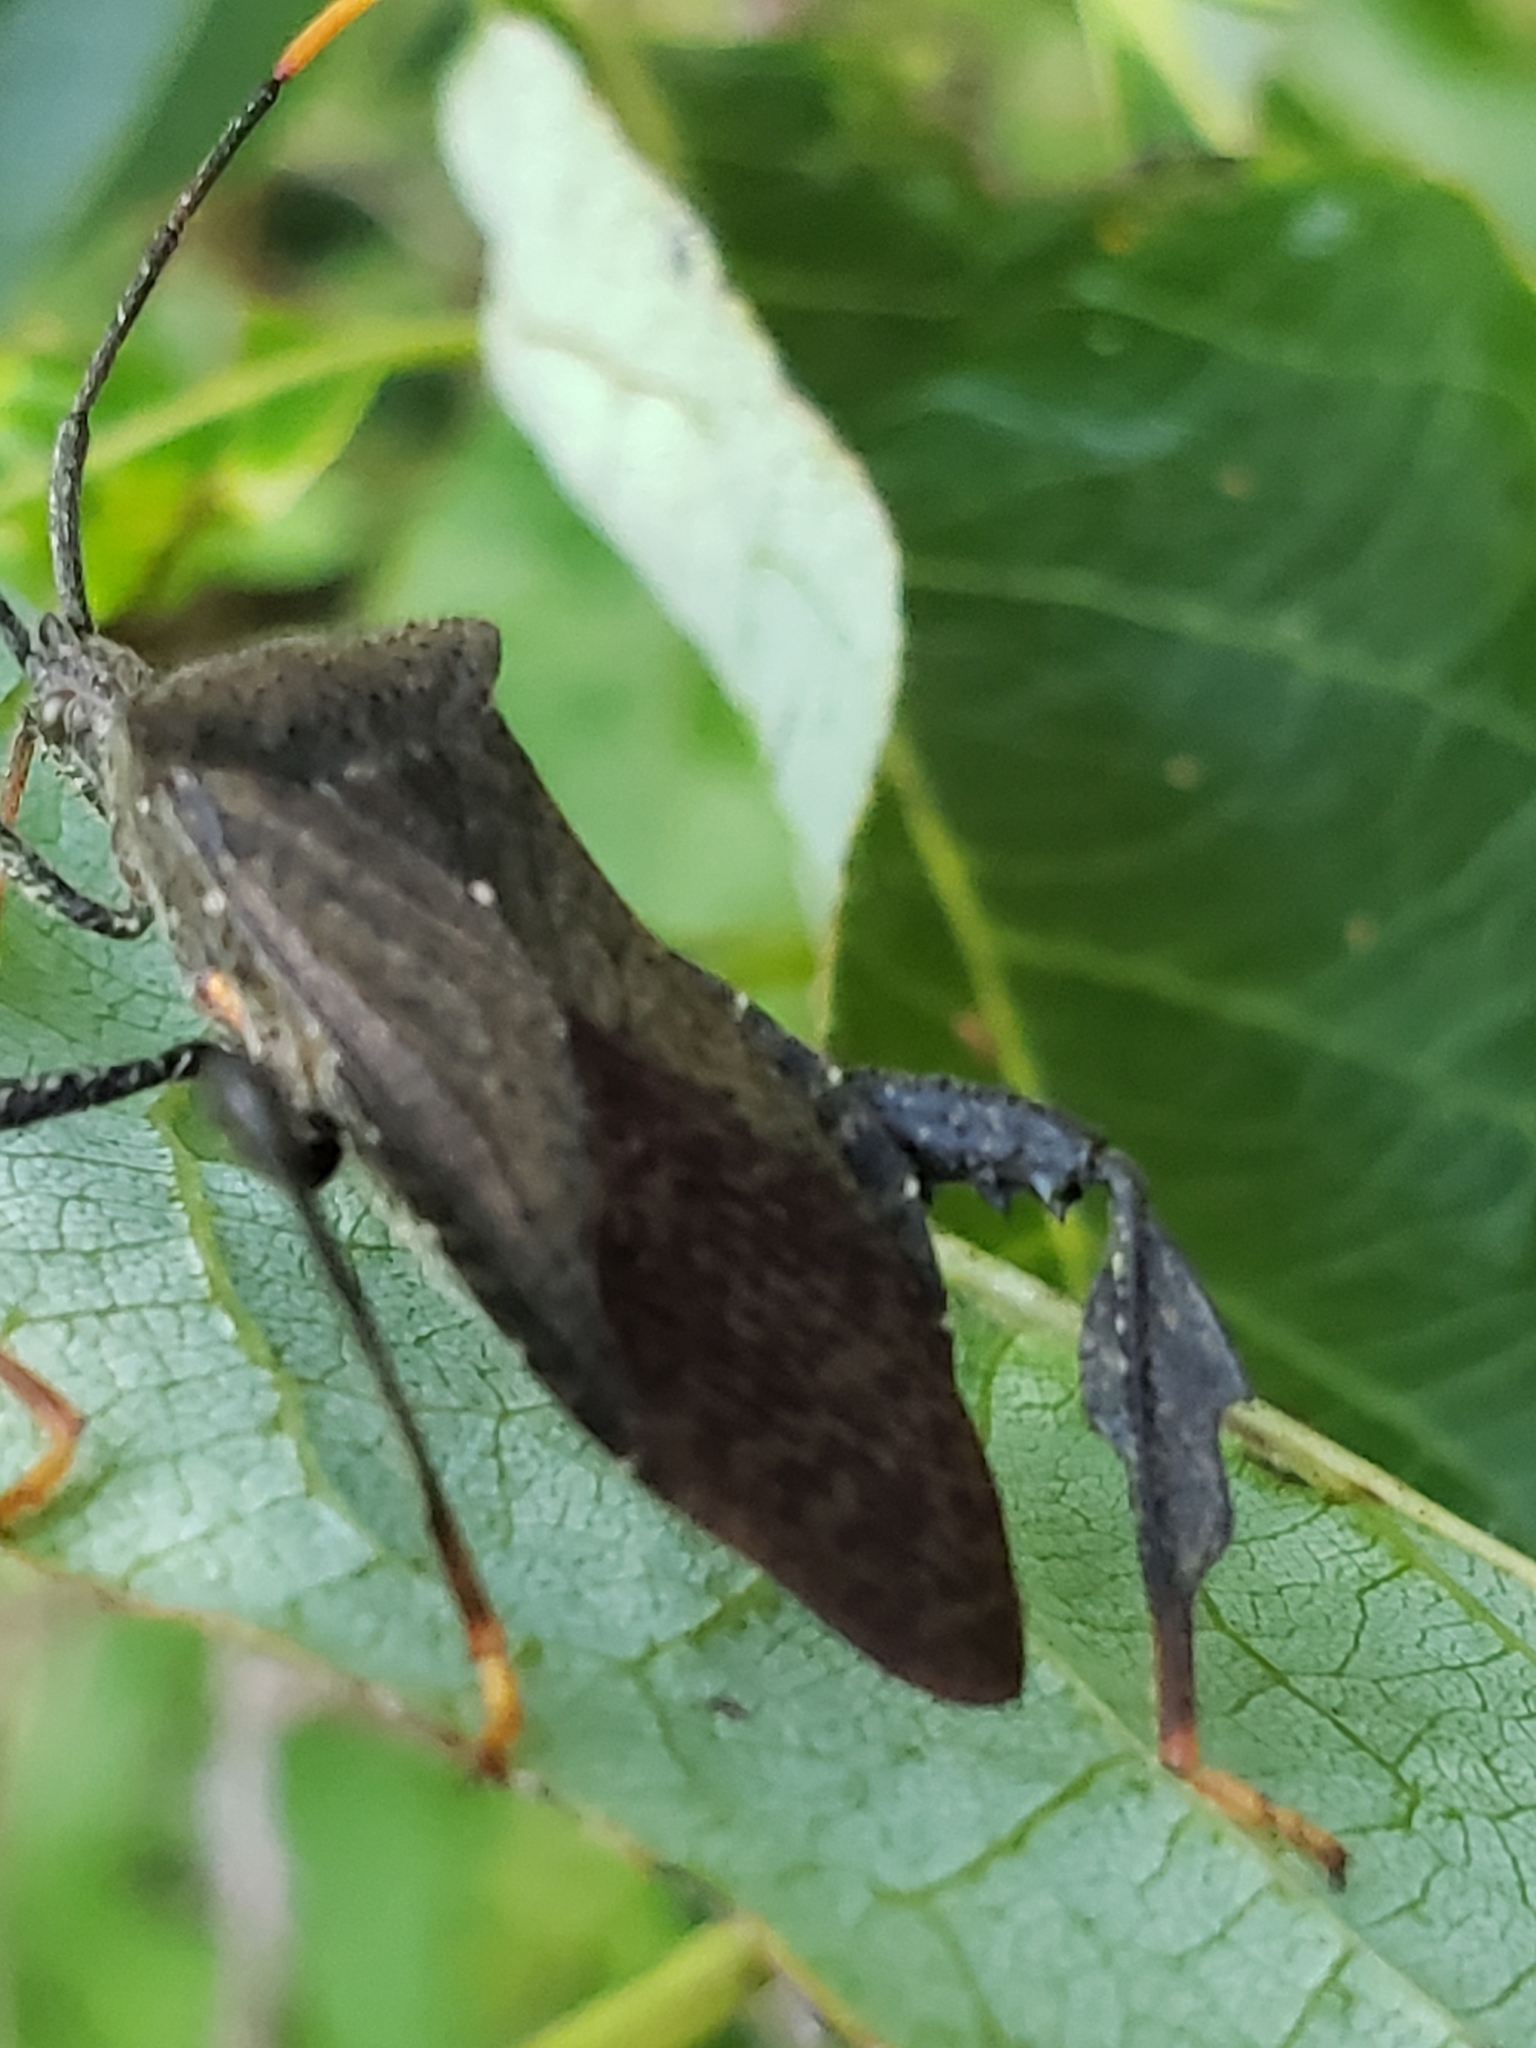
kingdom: Animalia
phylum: Arthropoda
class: Insecta
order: Hemiptera
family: Coreidae
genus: Acanthocephala
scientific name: Acanthocephala terminalis
